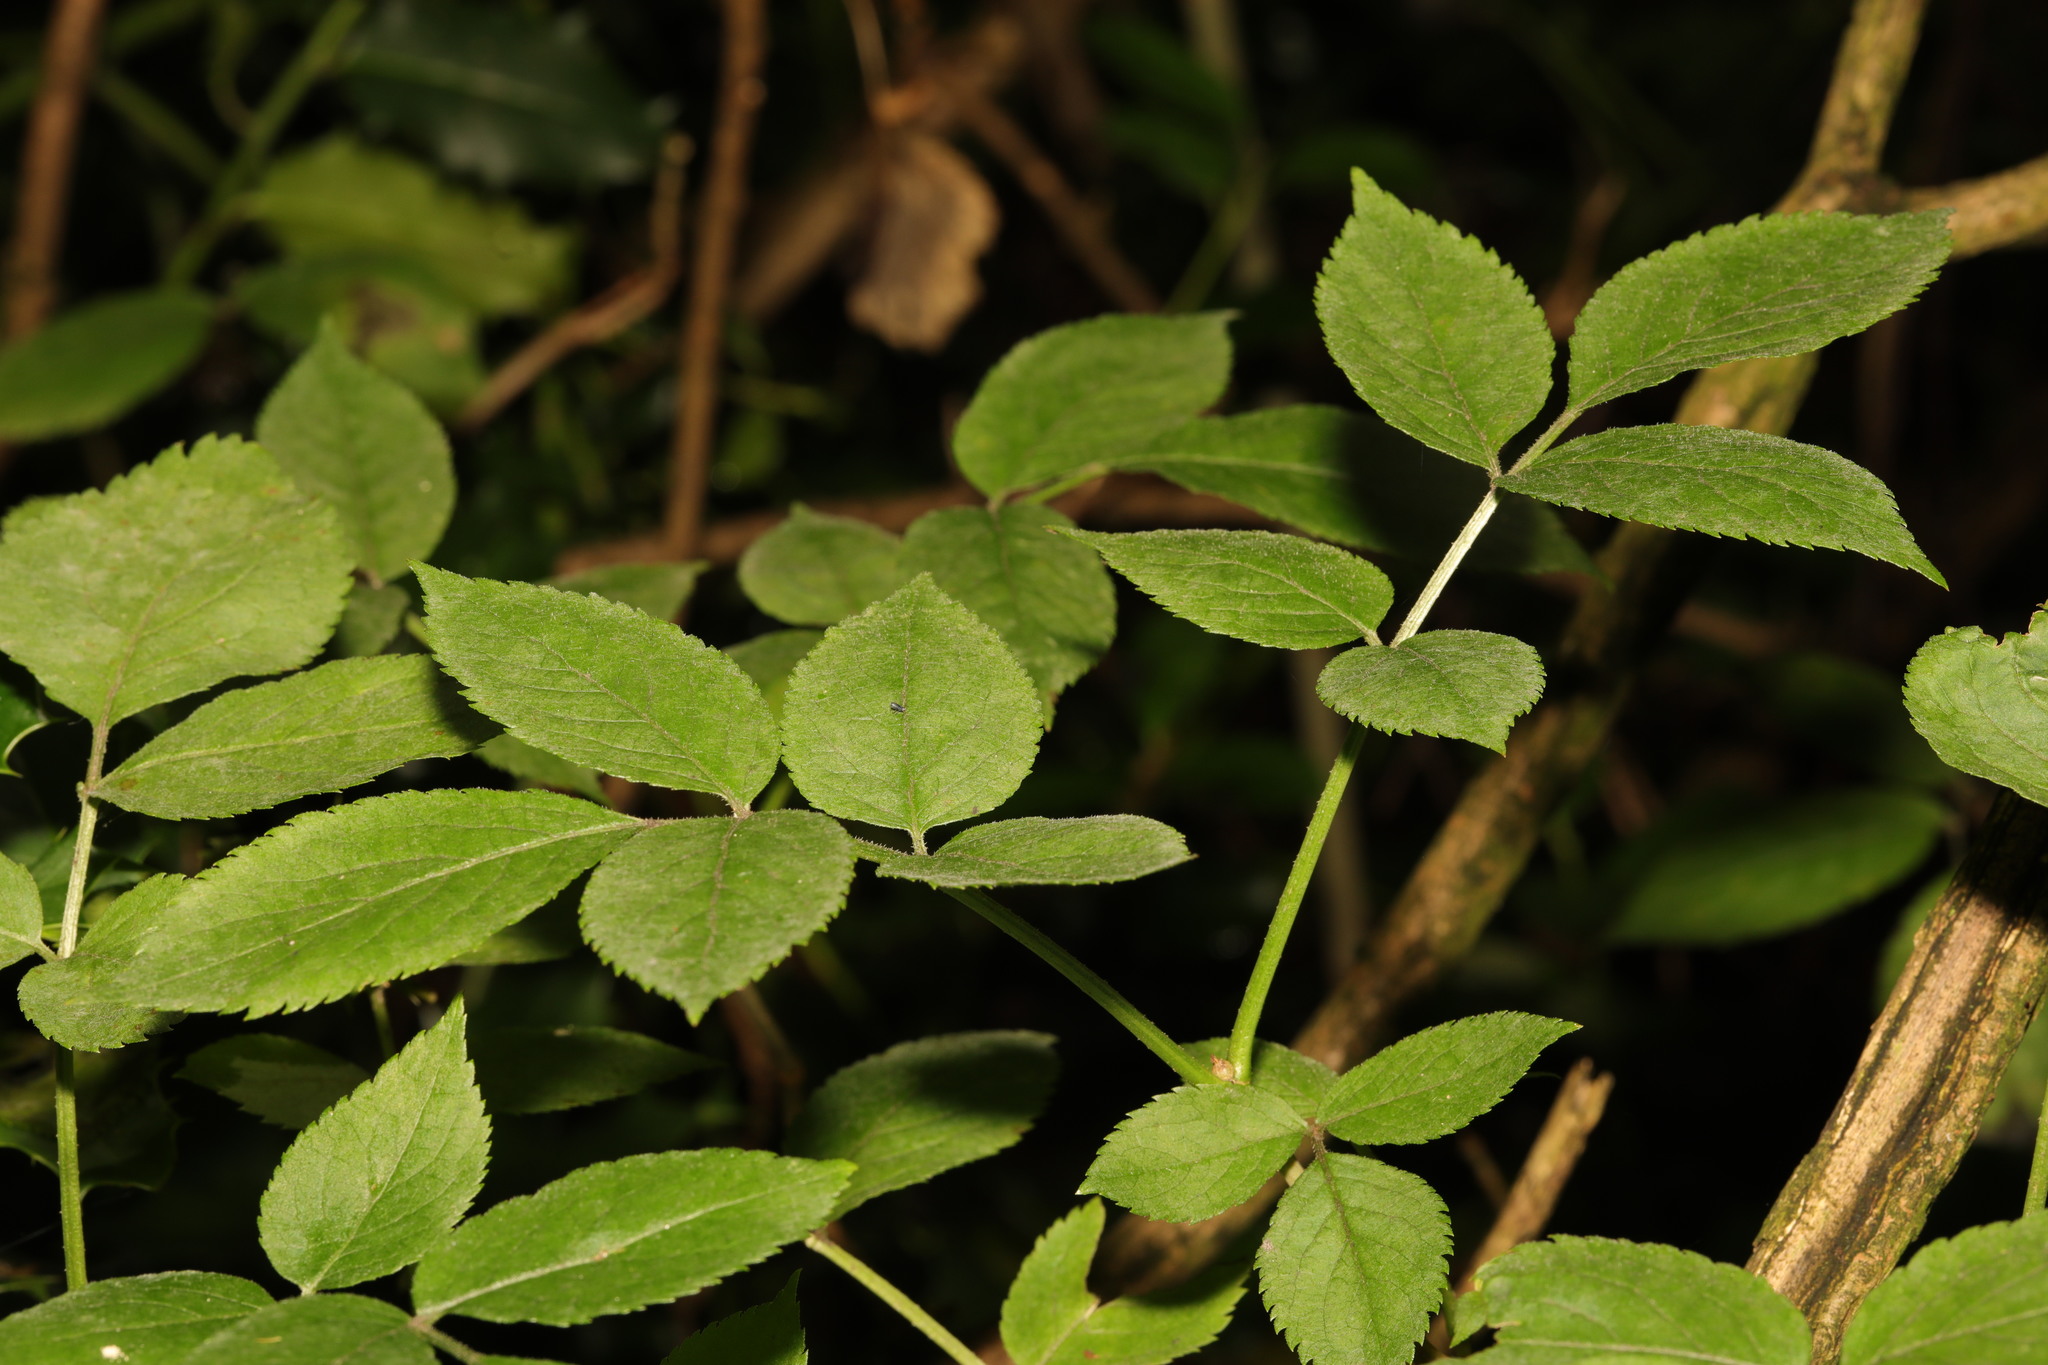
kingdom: Plantae
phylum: Tracheophyta
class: Magnoliopsida
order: Dipsacales
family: Viburnaceae
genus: Sambucus
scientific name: Sambucus nigra
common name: Elder
